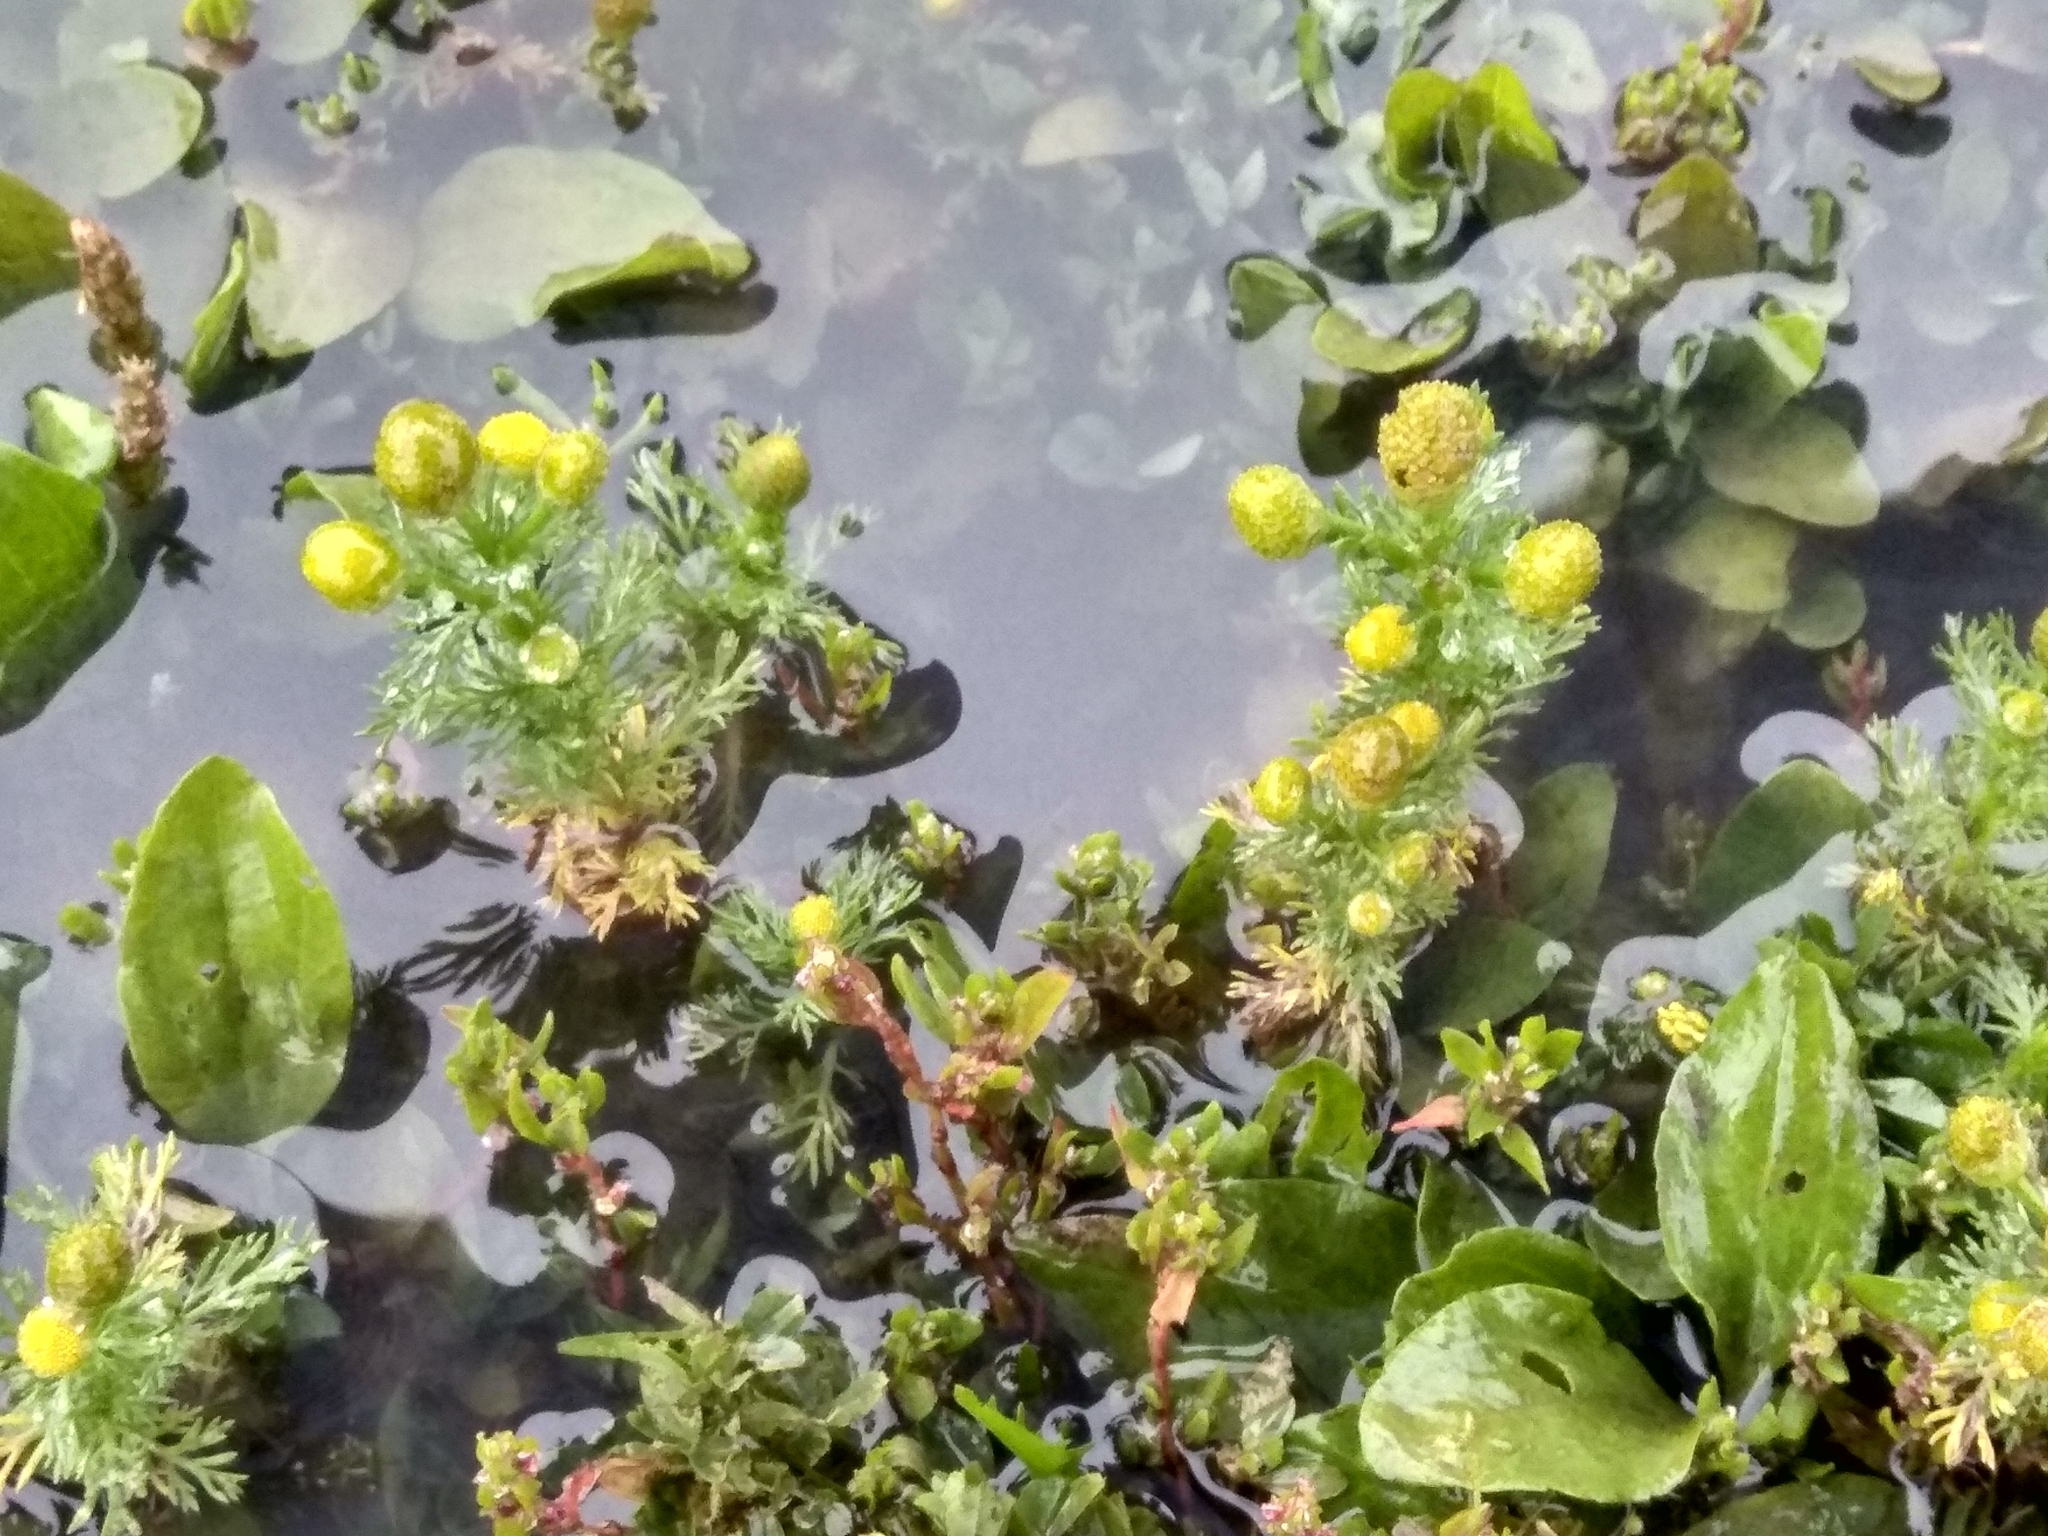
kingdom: Plantae
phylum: Tracheophyta
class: Magnoliopsida
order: Asterales
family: Asteraceae
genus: Matricaria
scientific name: Matricaria discoidea
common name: Disc mayweed
